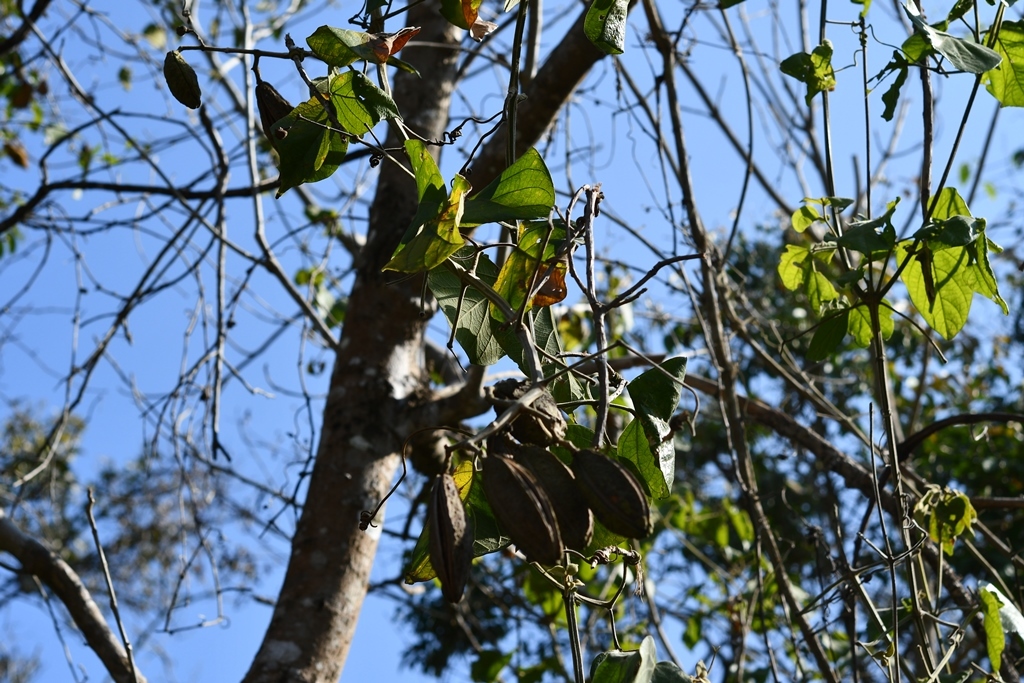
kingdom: Plantae
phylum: Tracheophyta
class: Magnoliopsida
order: Lamiales
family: Bignoniaceae
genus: Amphilophium
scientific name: Amphilophium paniculatum
